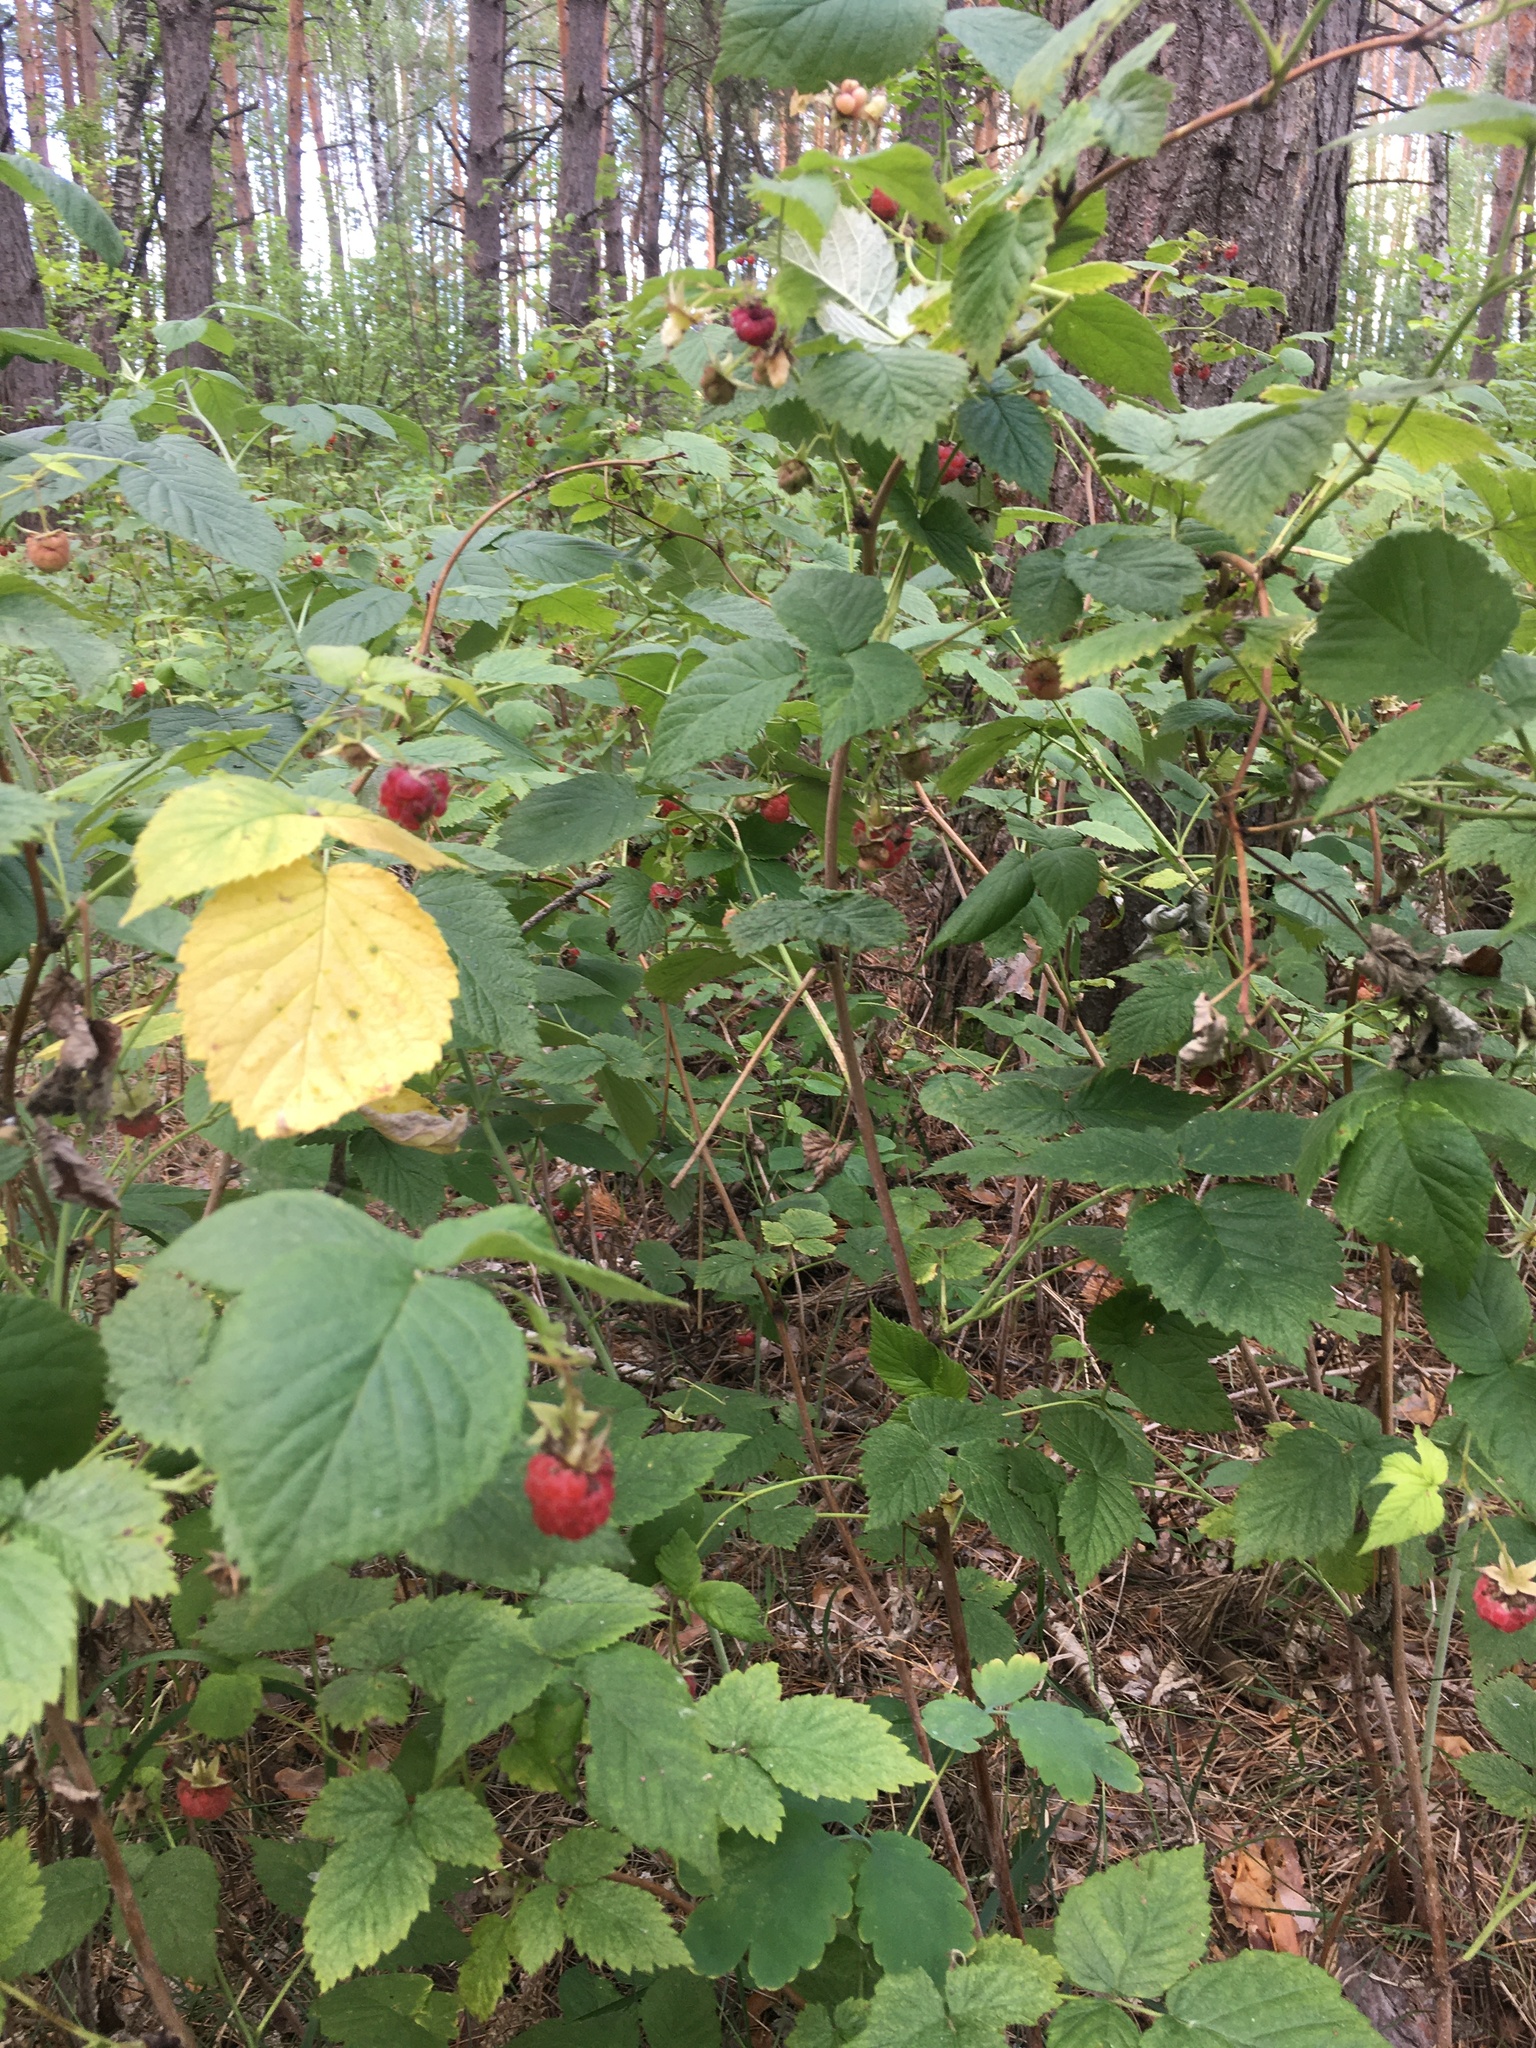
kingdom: Plantae
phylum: Tracheophyta
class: Magnoliopsida
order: Rosales
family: Rosaceae
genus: Rubus
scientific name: Rubus idaeus
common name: Raspberry
